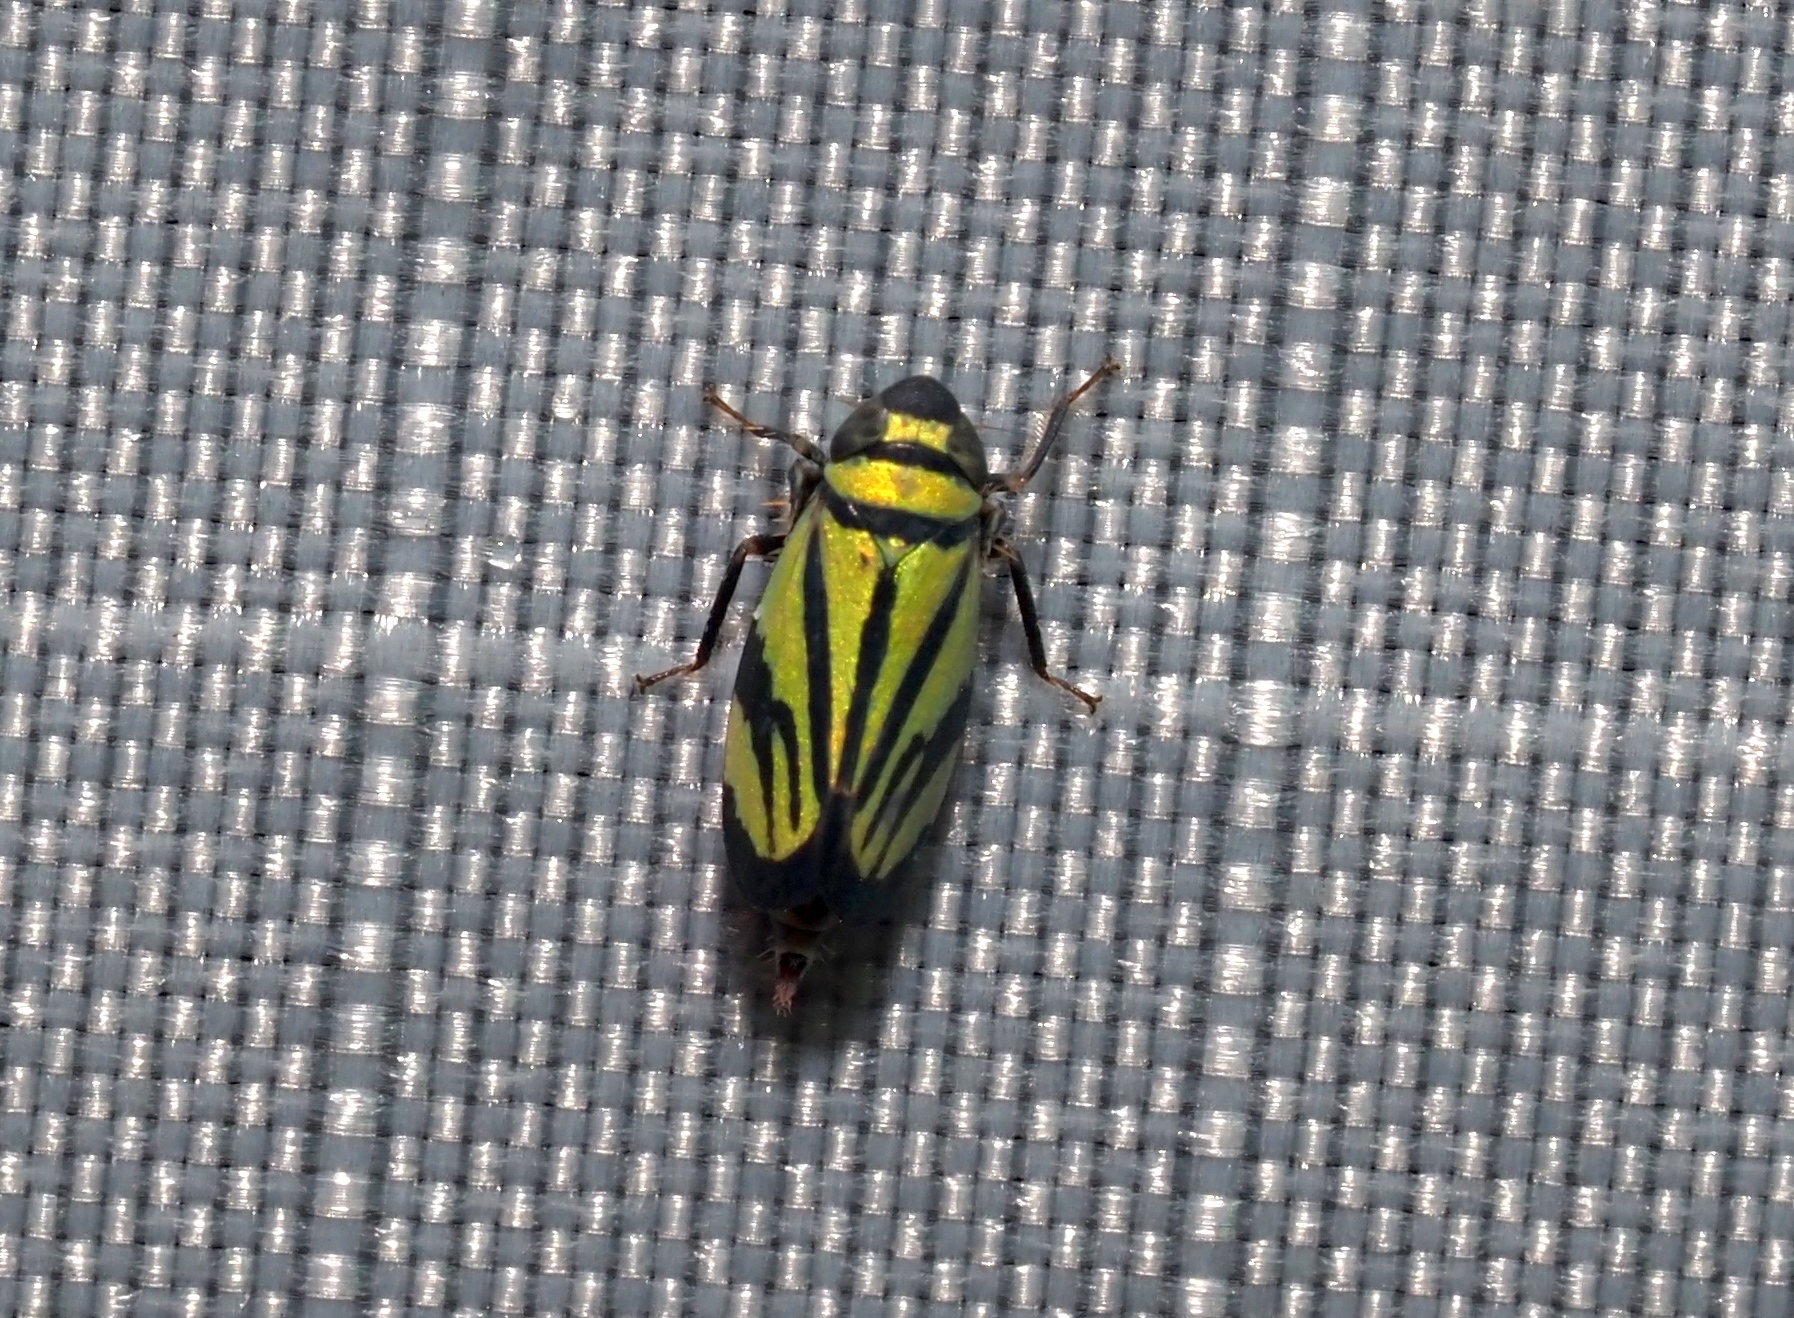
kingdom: Animalia
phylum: Arthropoda
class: Insecta
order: Hemiptera
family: Cicadellidae
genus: Stirellus
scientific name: Stirellus bicolor
